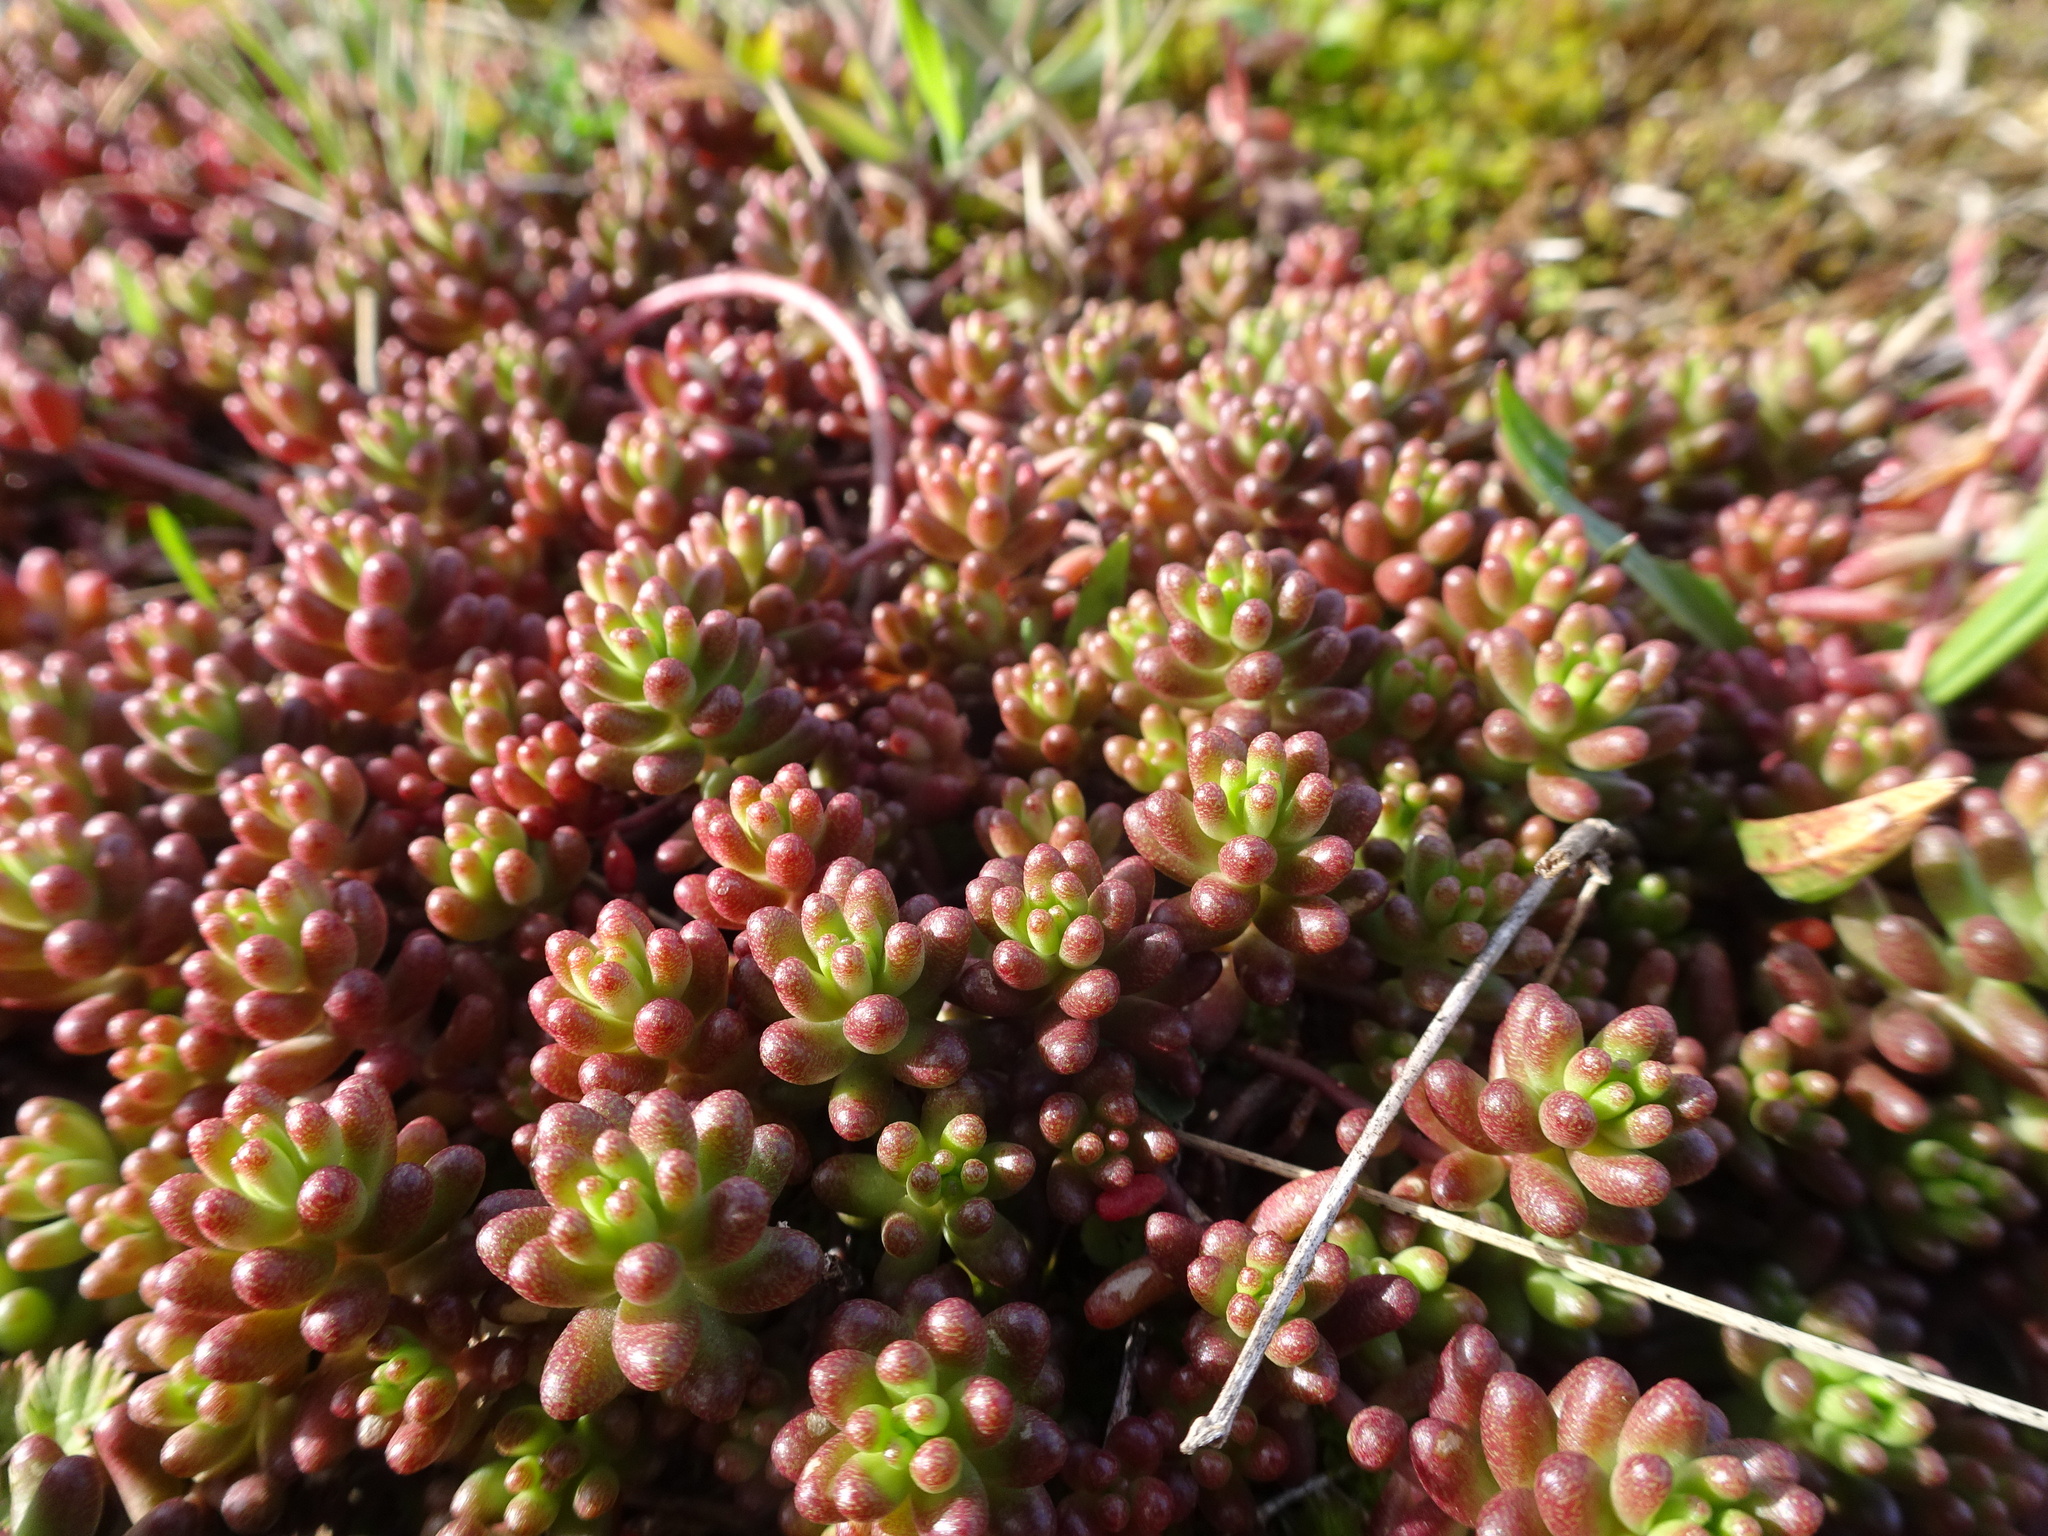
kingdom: Plantae
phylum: Tracheophyta
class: Magnoliopsida
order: Saxifragales
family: Crassulaceae
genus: Sedum
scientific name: Sedum album
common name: White stonecrop
